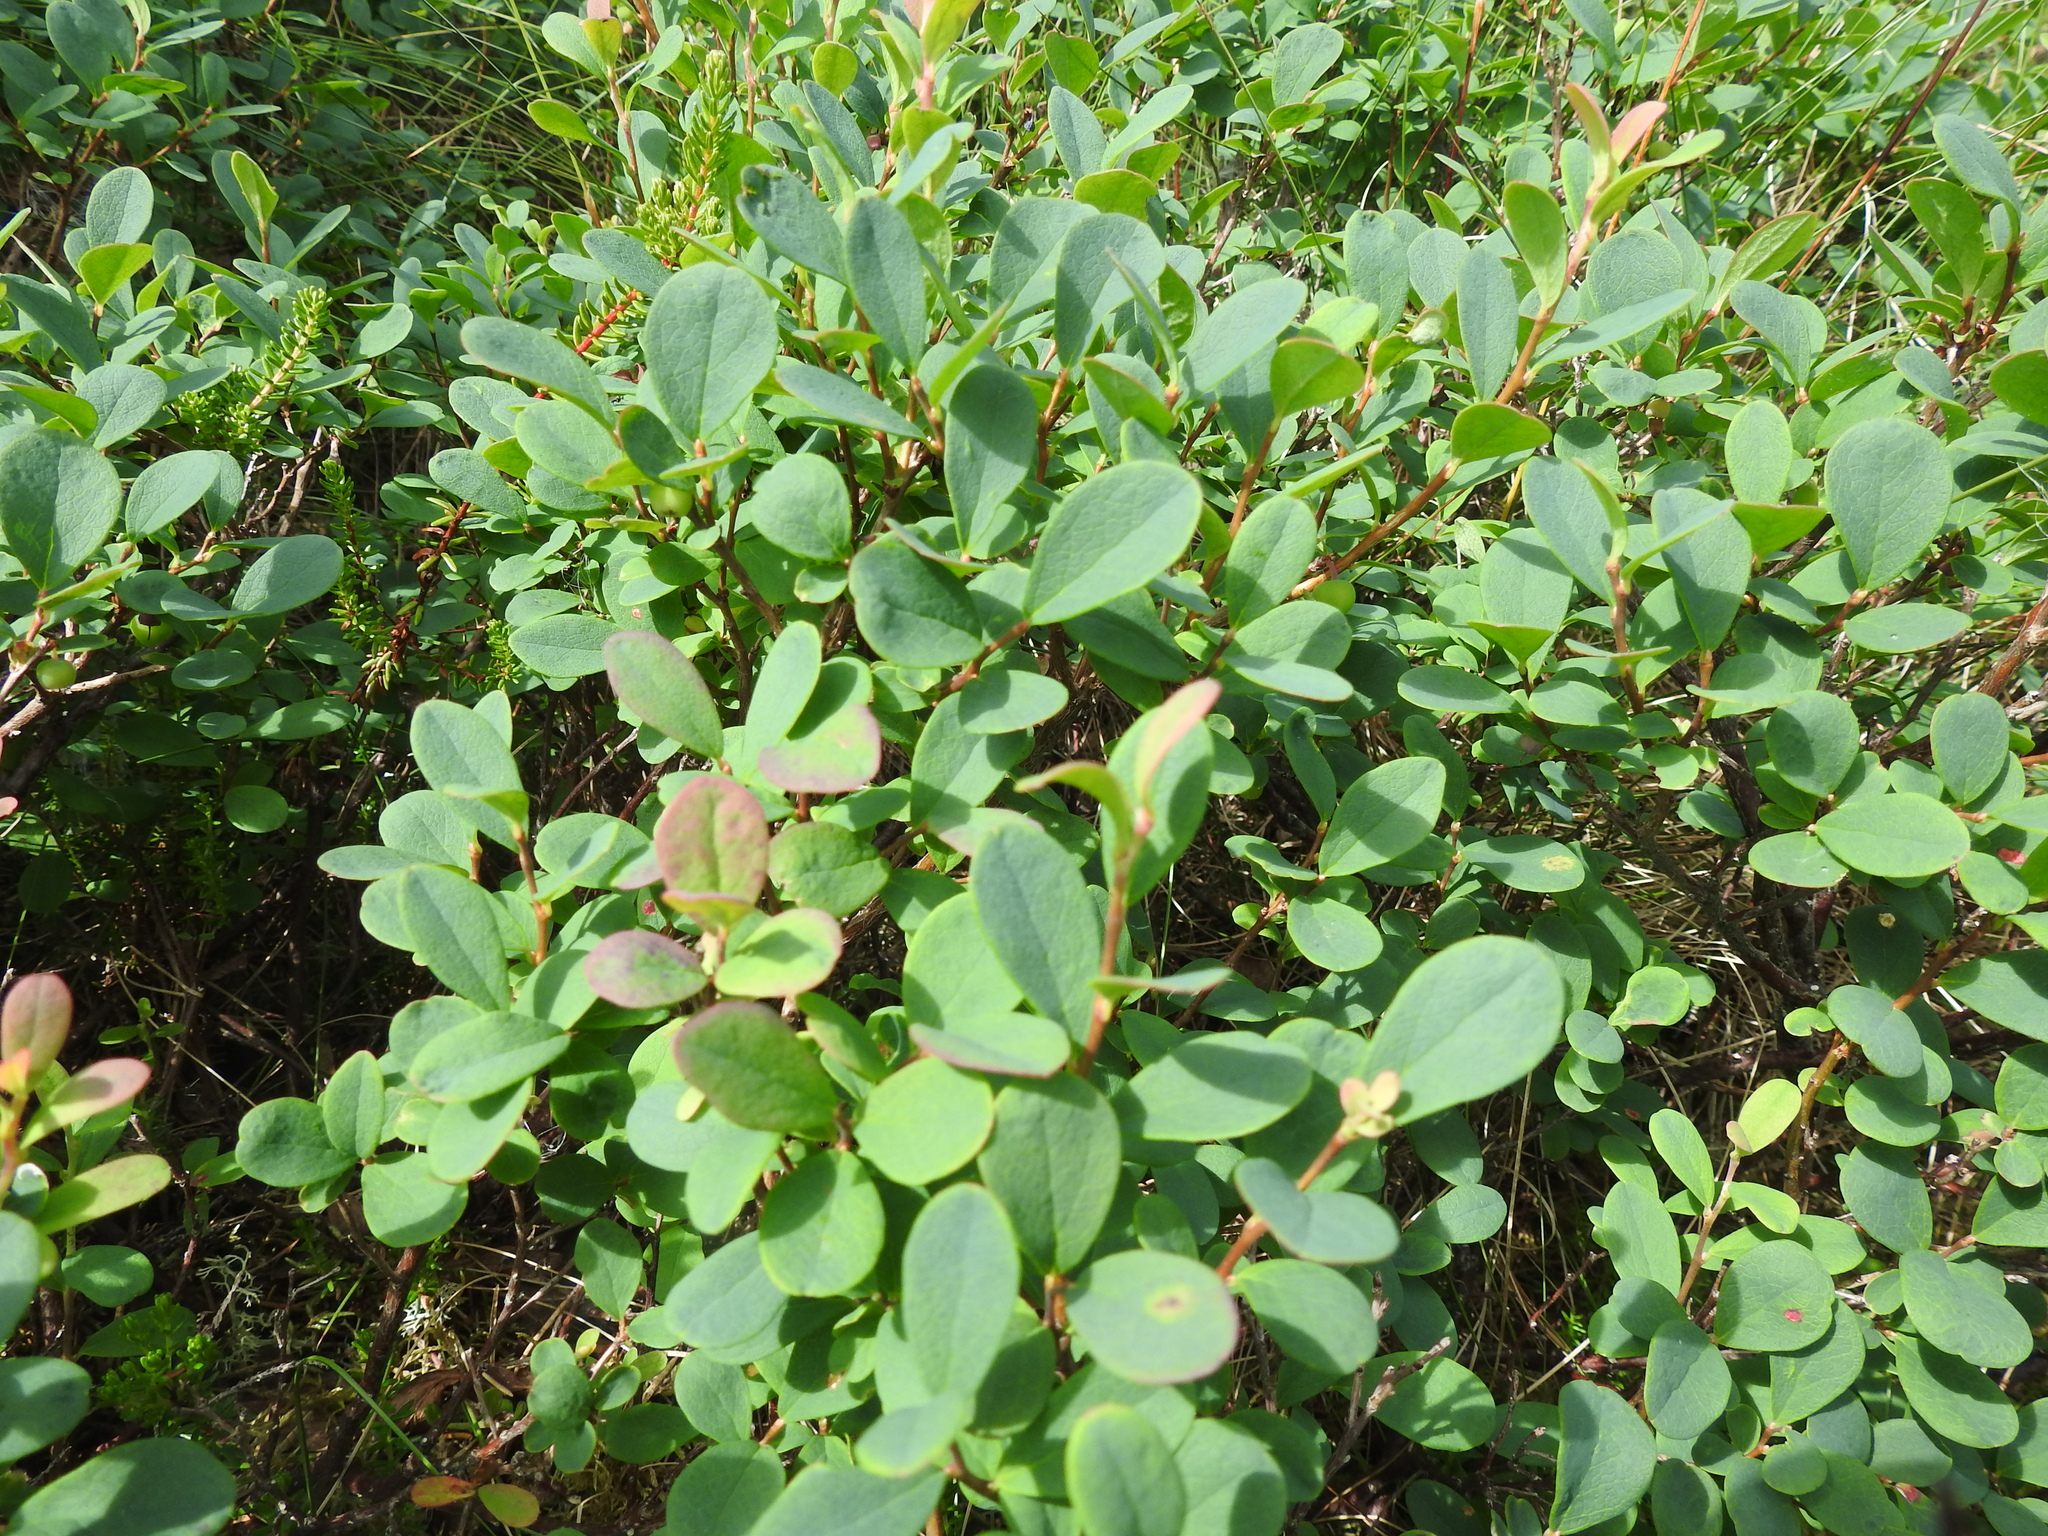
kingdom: Plantae
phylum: Tracheophyta
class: Magnoliopsida
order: Ericales
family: Ericaceae
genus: Vaccinium
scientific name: Vaccinium uliginosum
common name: Bog bilberry
